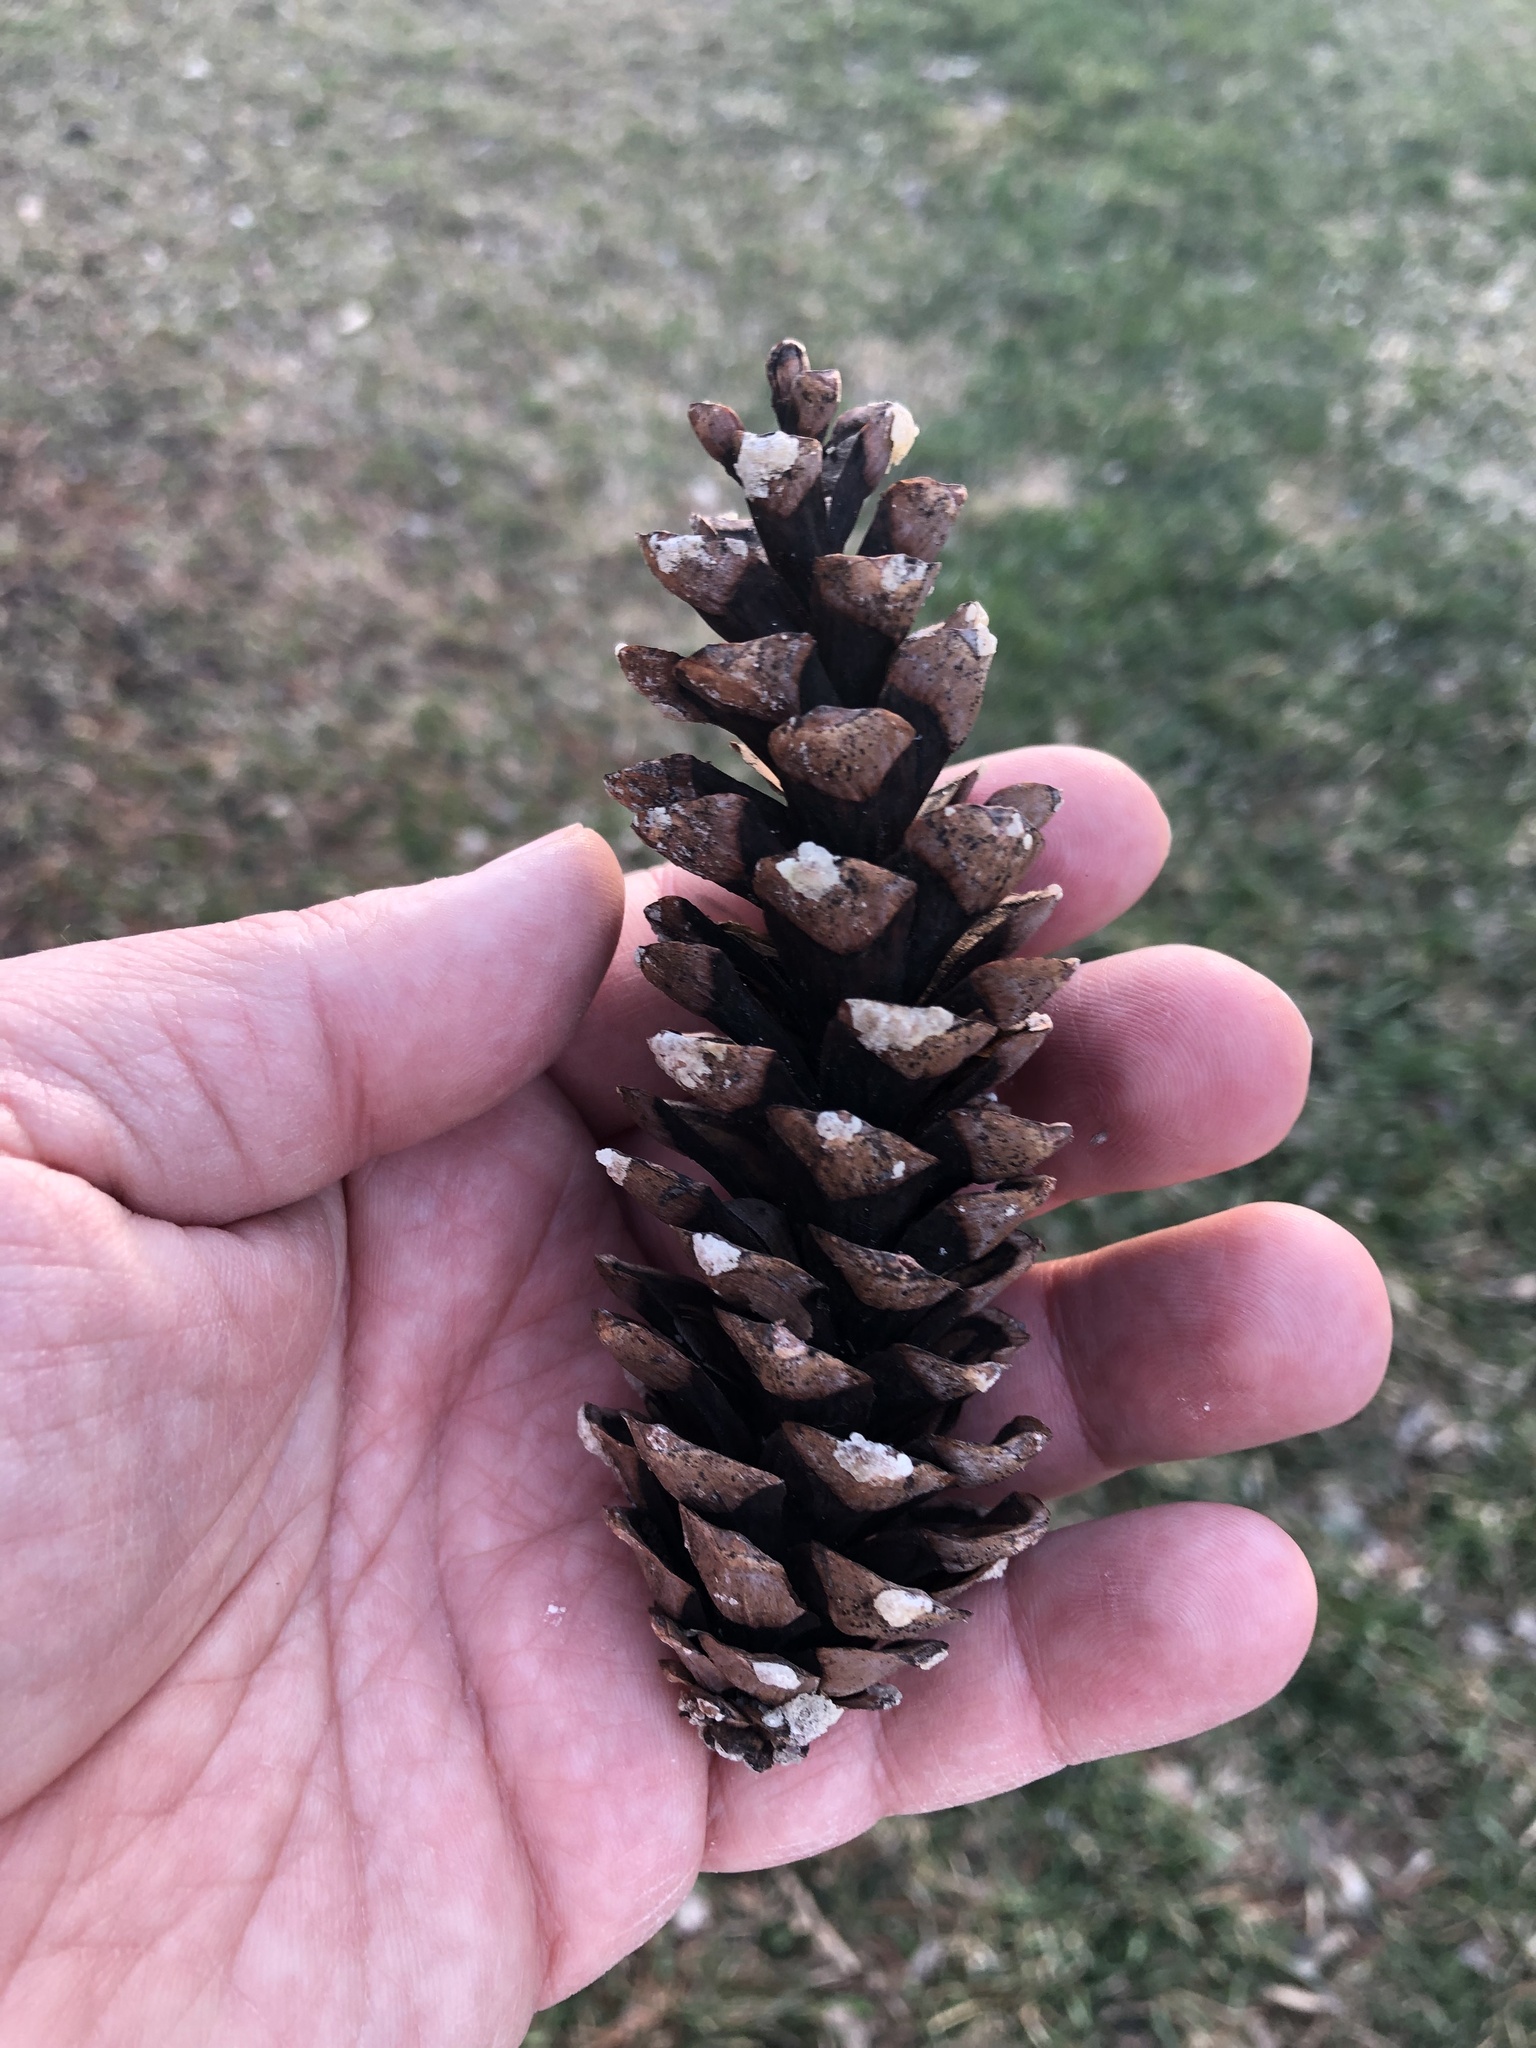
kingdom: Plantae
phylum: Tracheophyta
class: Pinopsida
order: Pinales
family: Pinaceae
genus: Pinus
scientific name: Pinus strobus
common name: Weymouth pine
